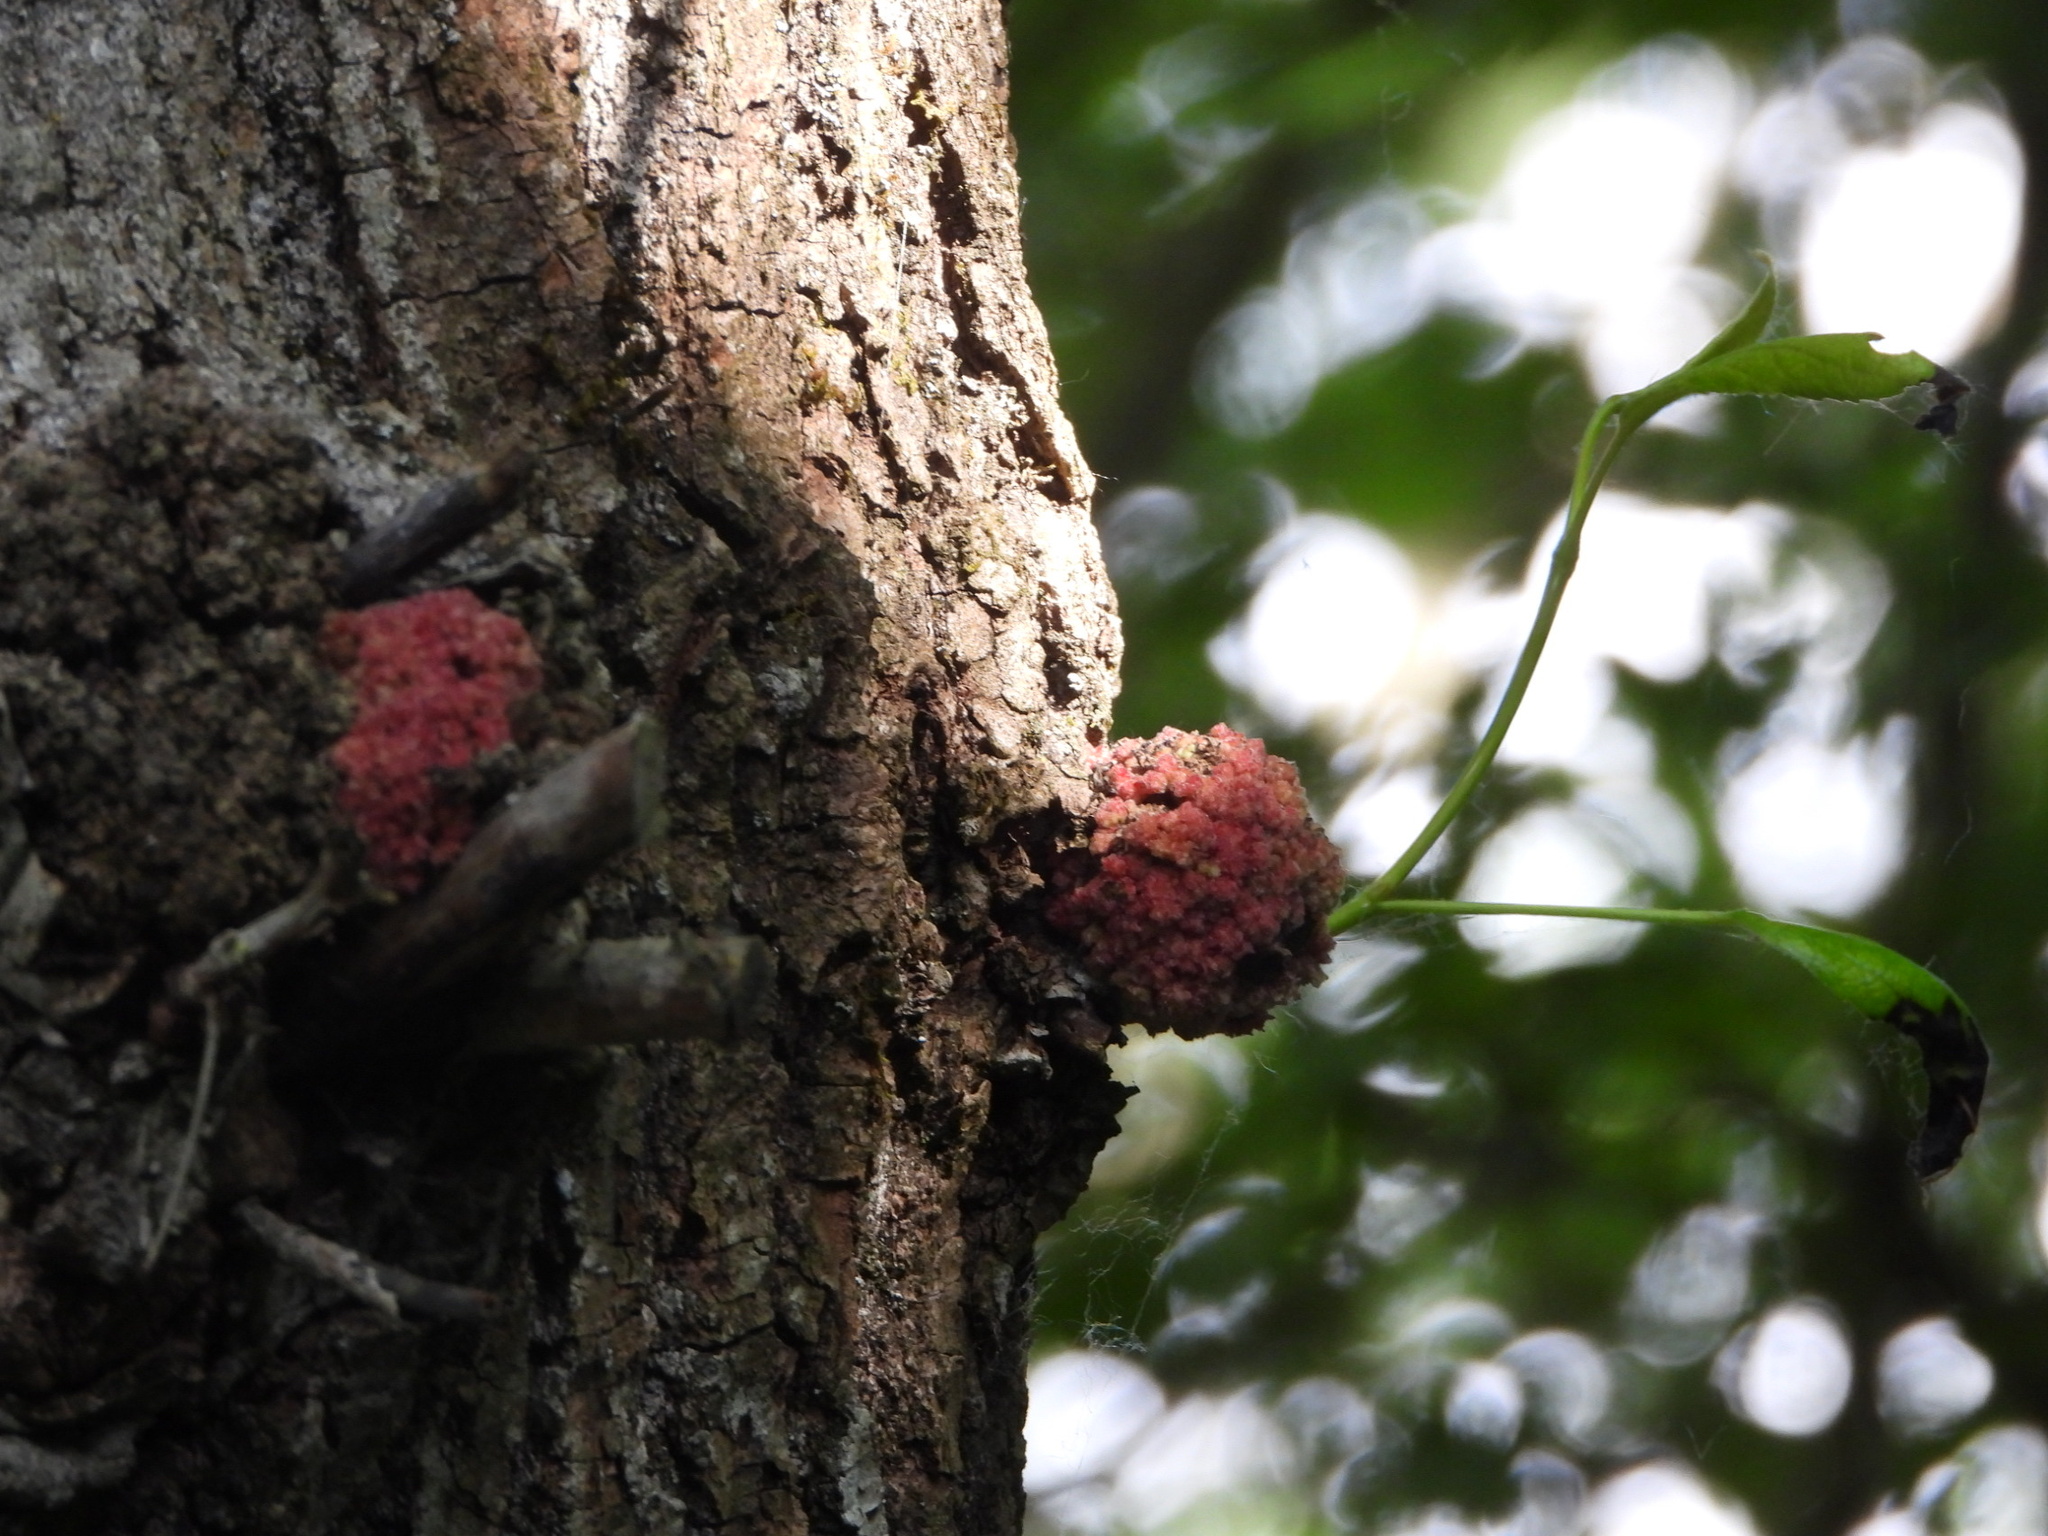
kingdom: Animalia
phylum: Arthropoda
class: Arachnida
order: Trombidiformes
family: Eriophyidae
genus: Aceria
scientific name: Aceria
